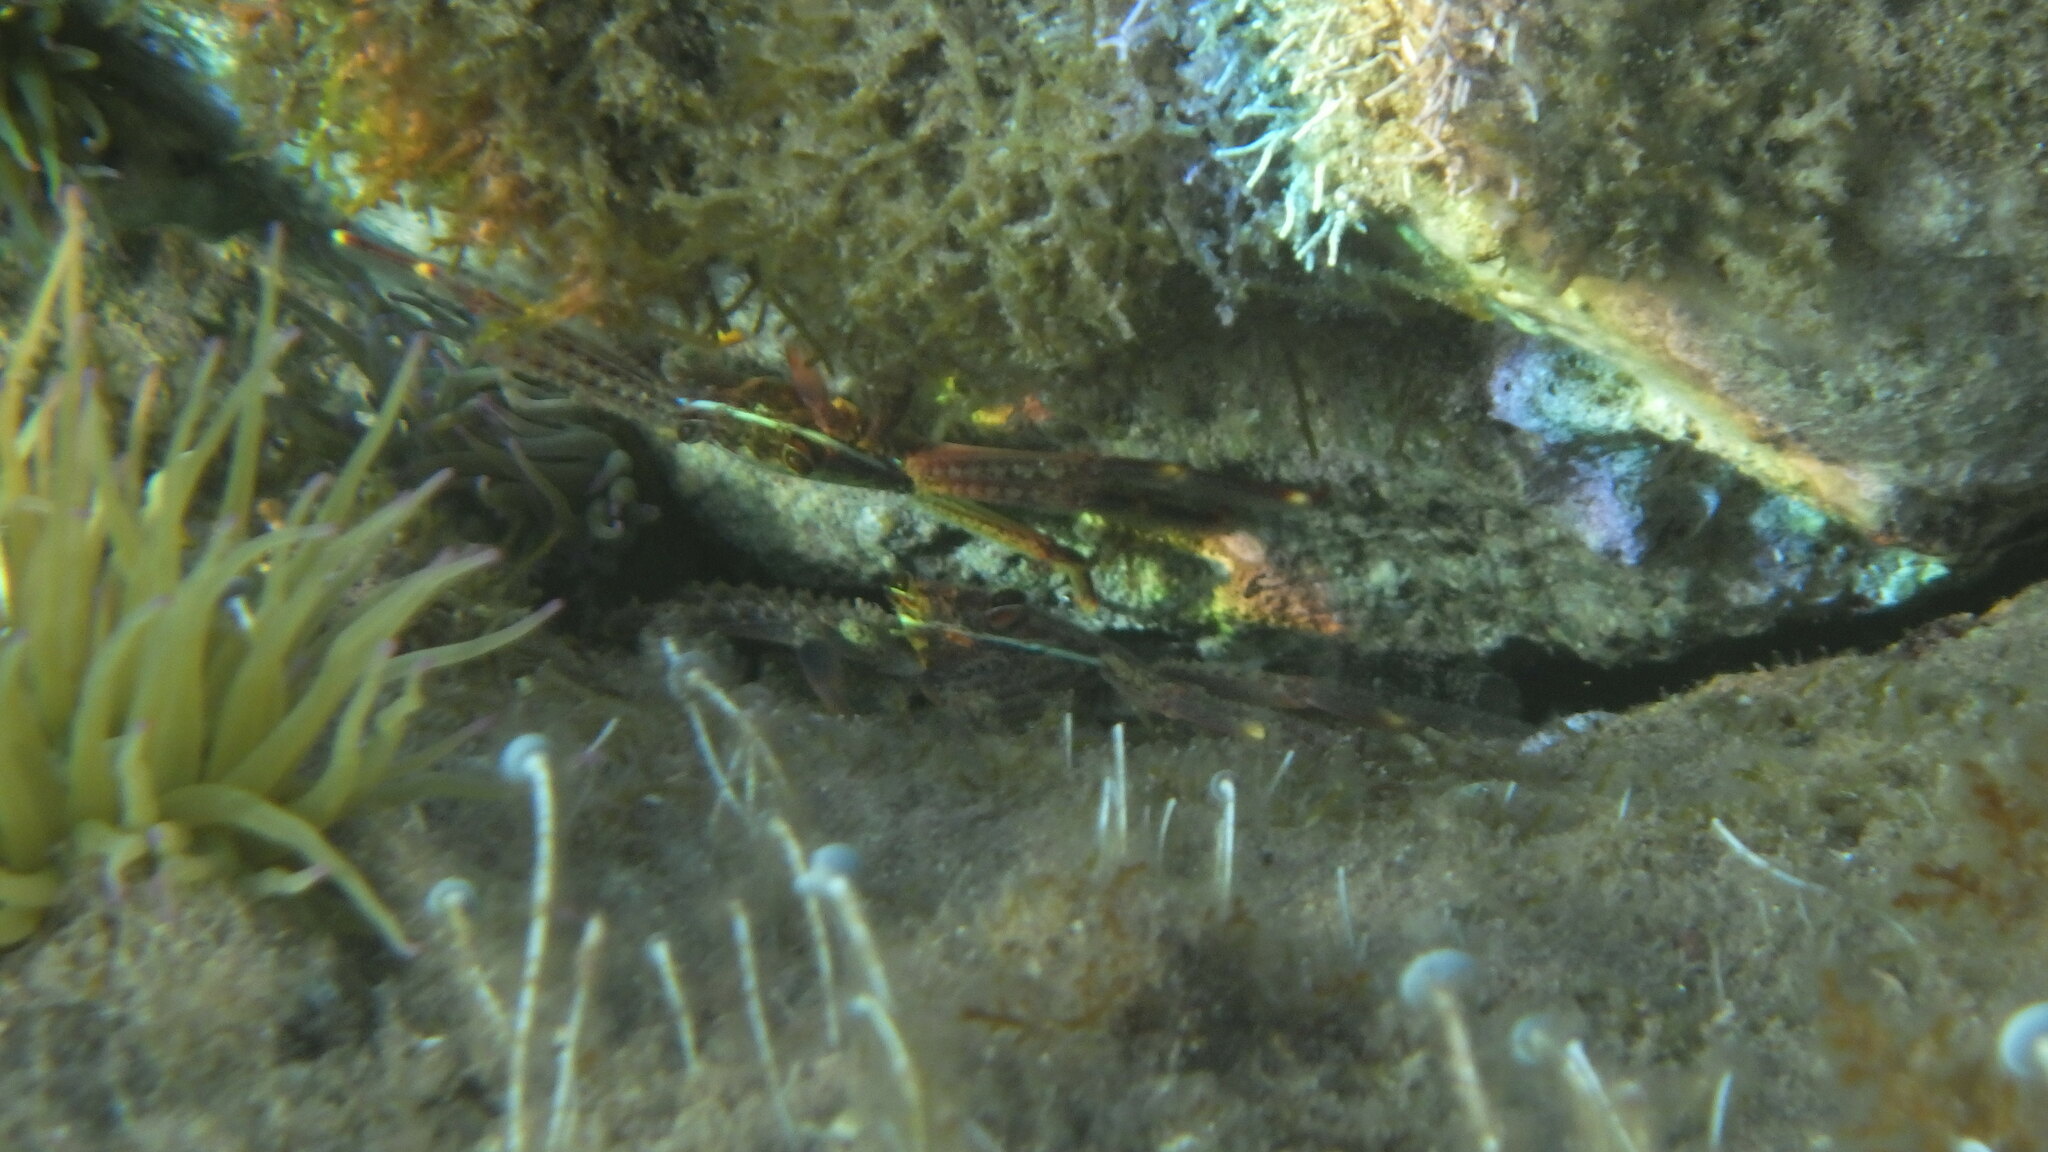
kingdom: Animalia
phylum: Arthropoda
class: Malacostraca
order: Decapoda
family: Percnidae
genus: Percnon
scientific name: Percnon gibbesi
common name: Nimble spray crab
